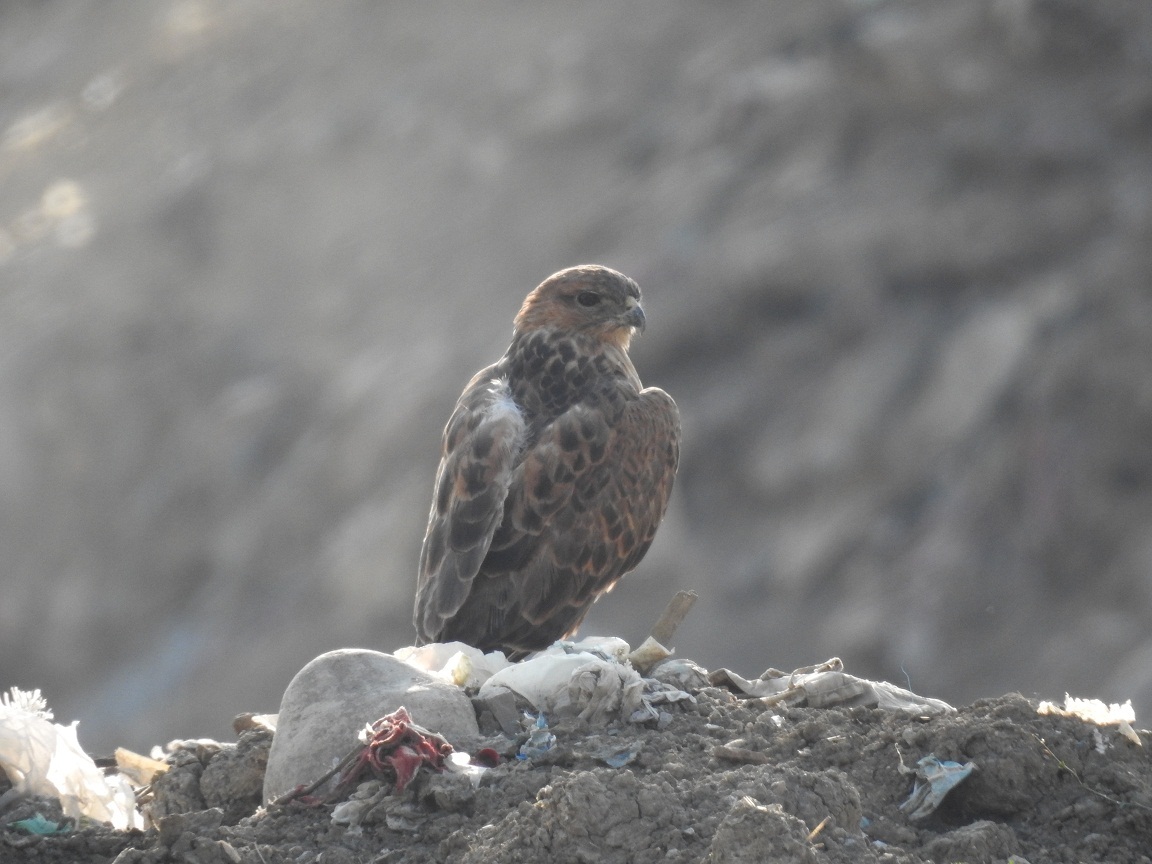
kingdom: Animalia
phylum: Chordata
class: Aves
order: Accipitriformes
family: Accipitridae
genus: Buteo
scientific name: Buteo rufinus
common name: Long-legged buzzard
